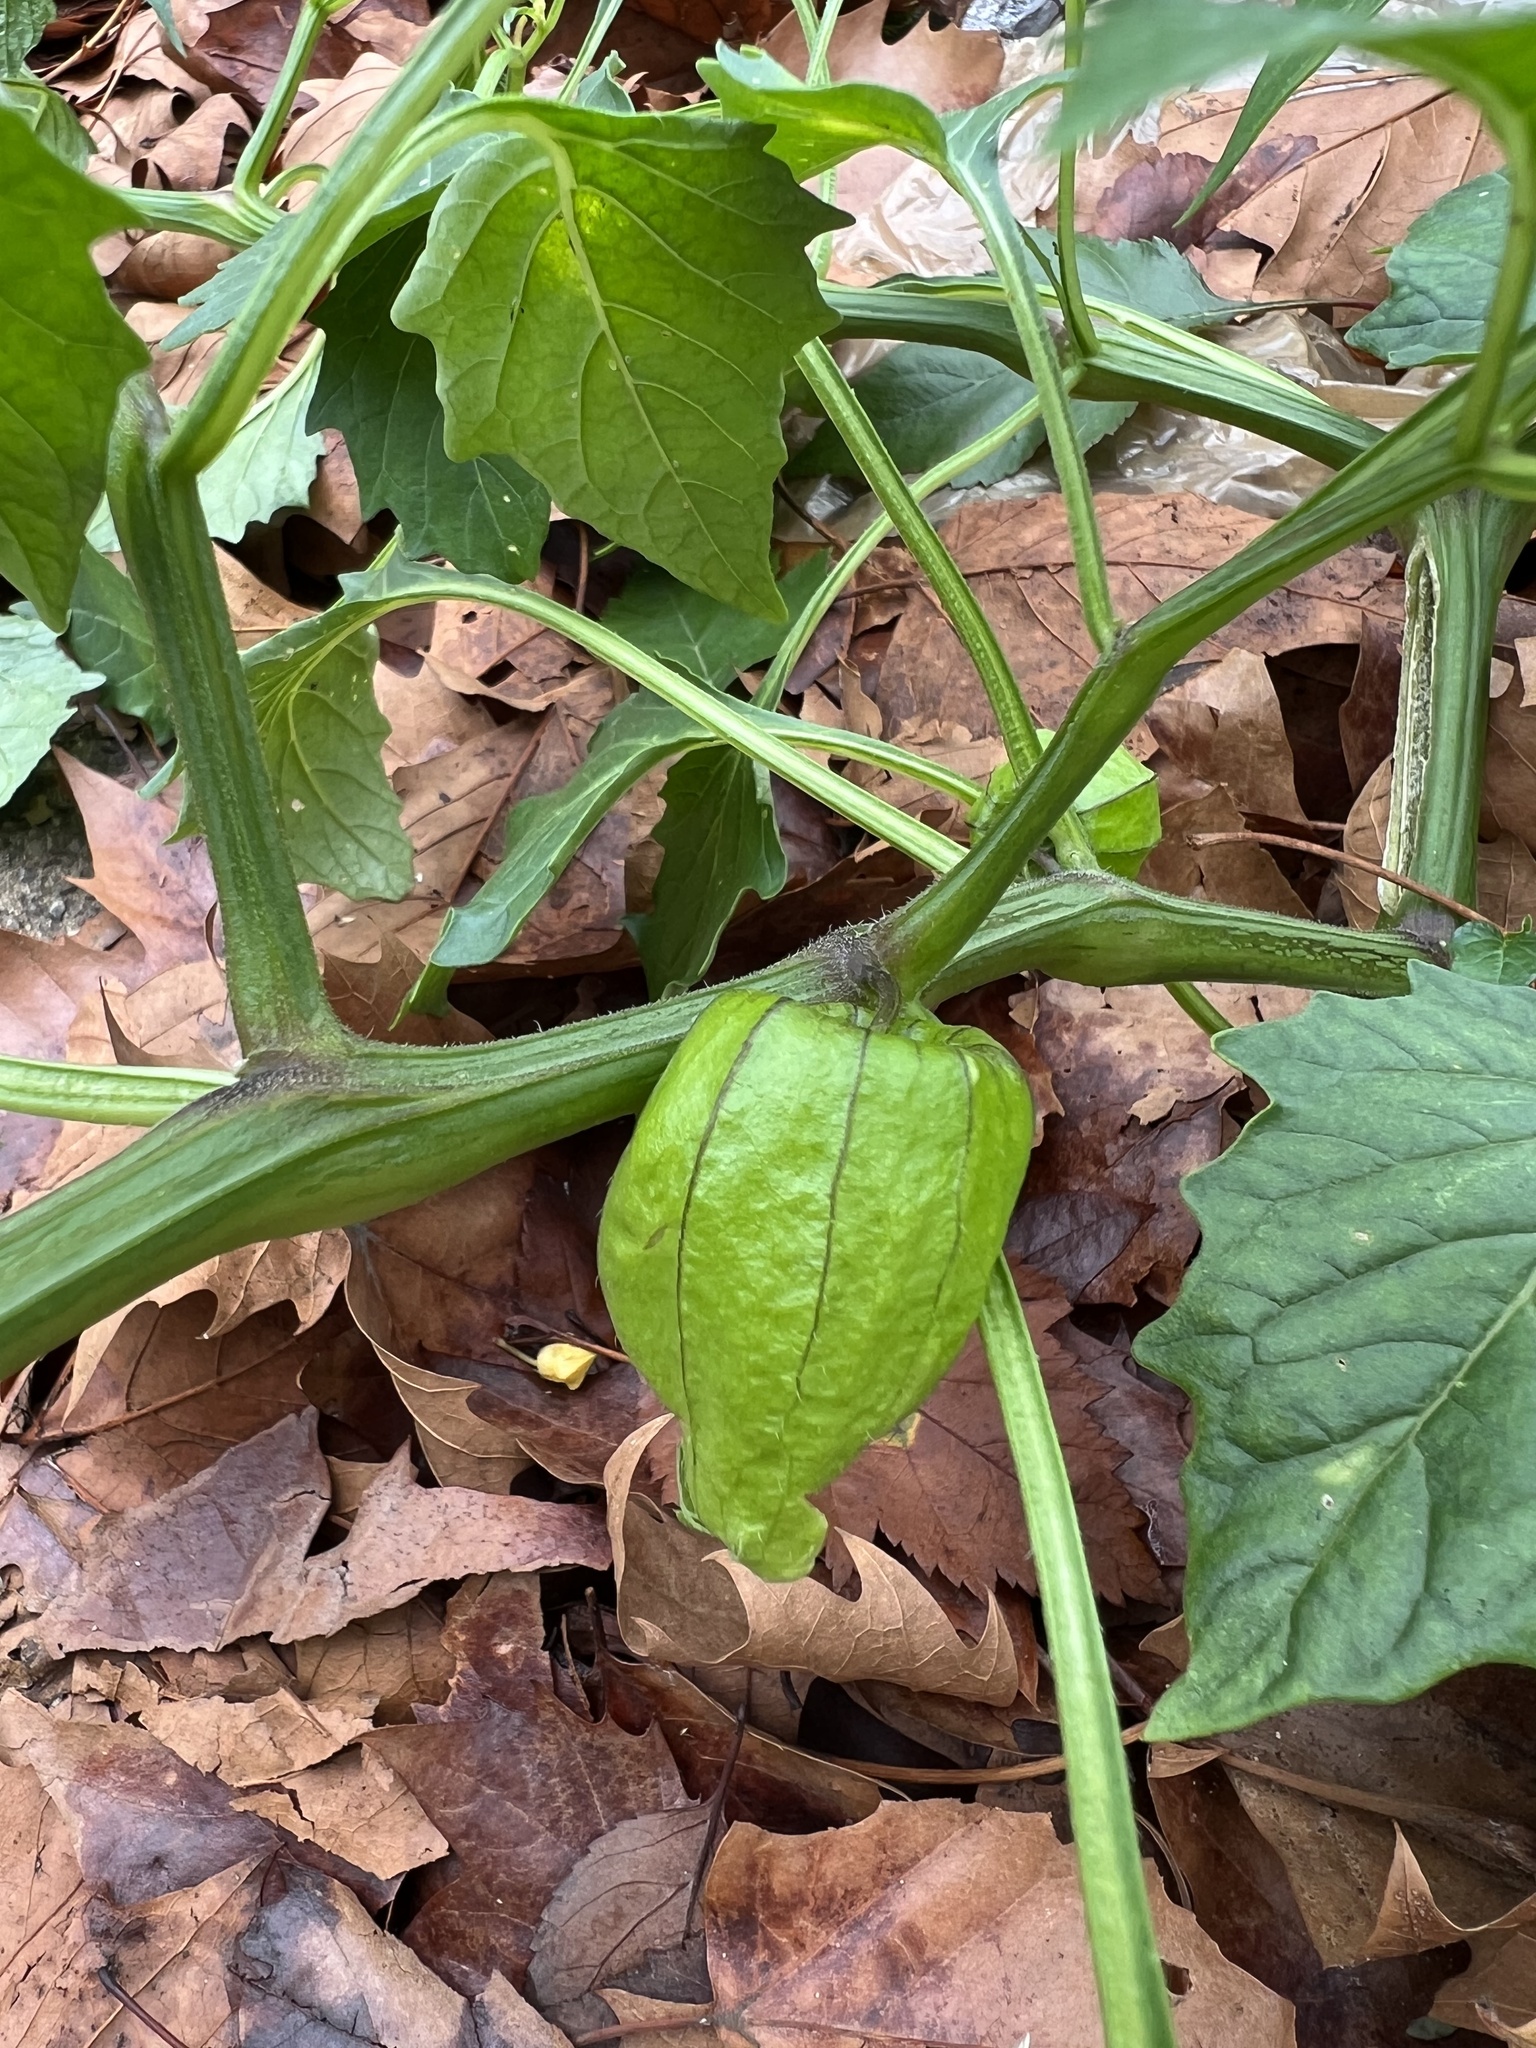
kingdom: Plantae
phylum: Tracheophyta
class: Magnoliopsida
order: Solanales
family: Solanaceae
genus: Physalis
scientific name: Physalis philadelphica
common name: Husk-tomato
